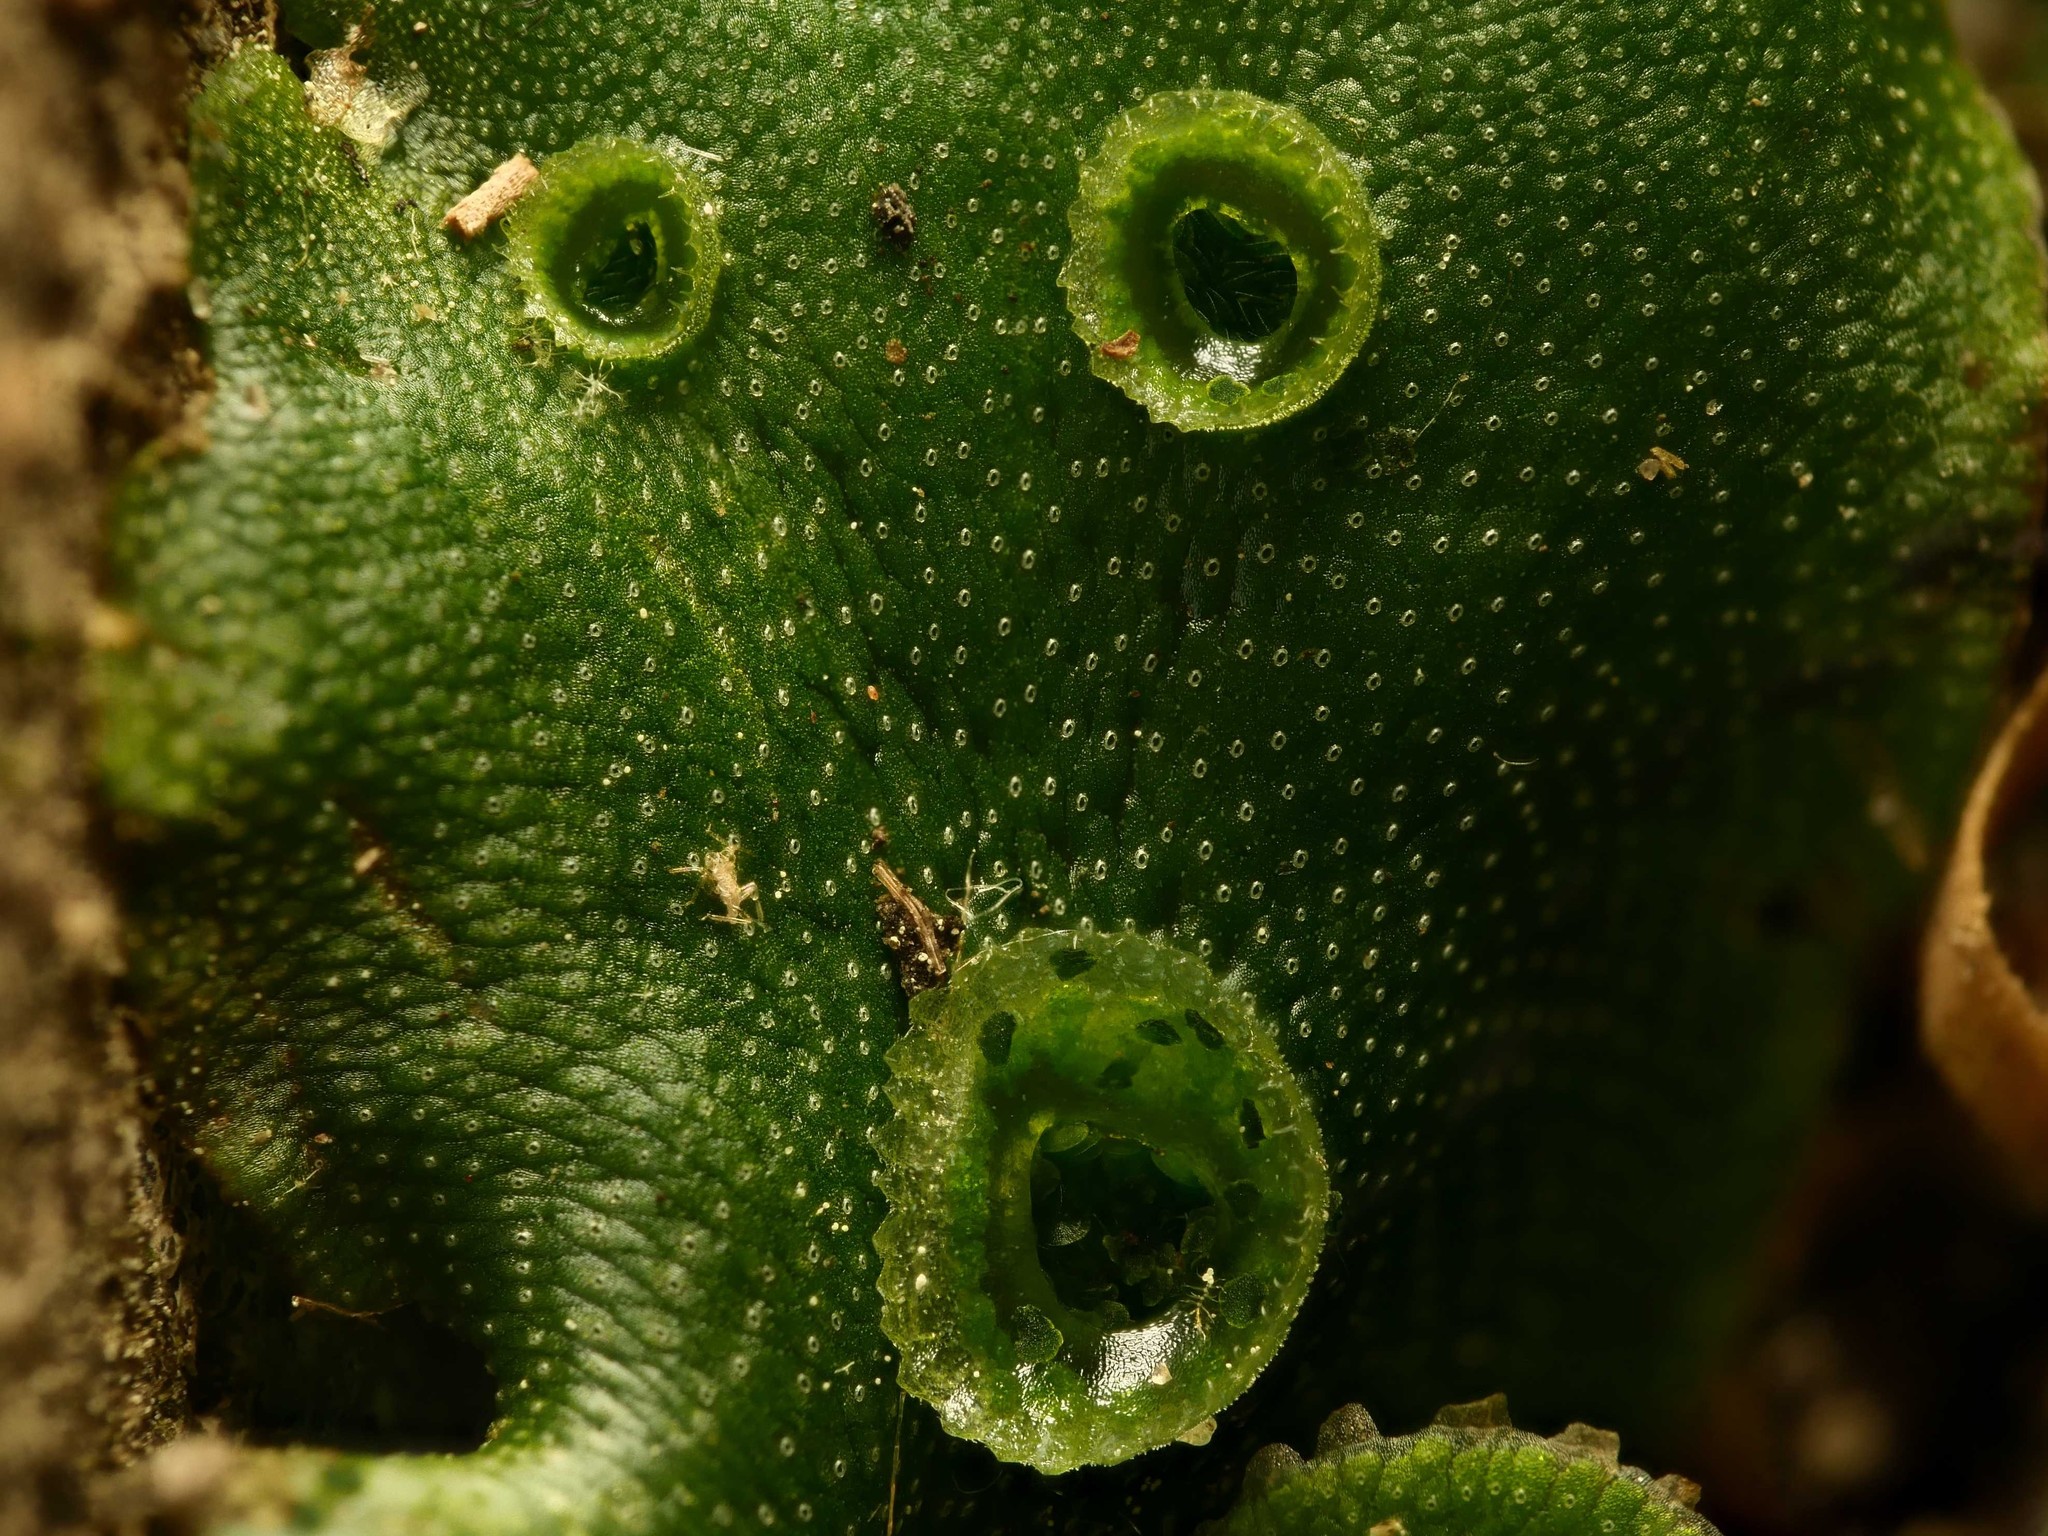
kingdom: Plantae
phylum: Marchantiophyta
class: Marchantiopsida
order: Marchantiales
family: Marchantiaceae
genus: Marchantia
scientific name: Marchantia polymorpha
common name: Common liverwort
